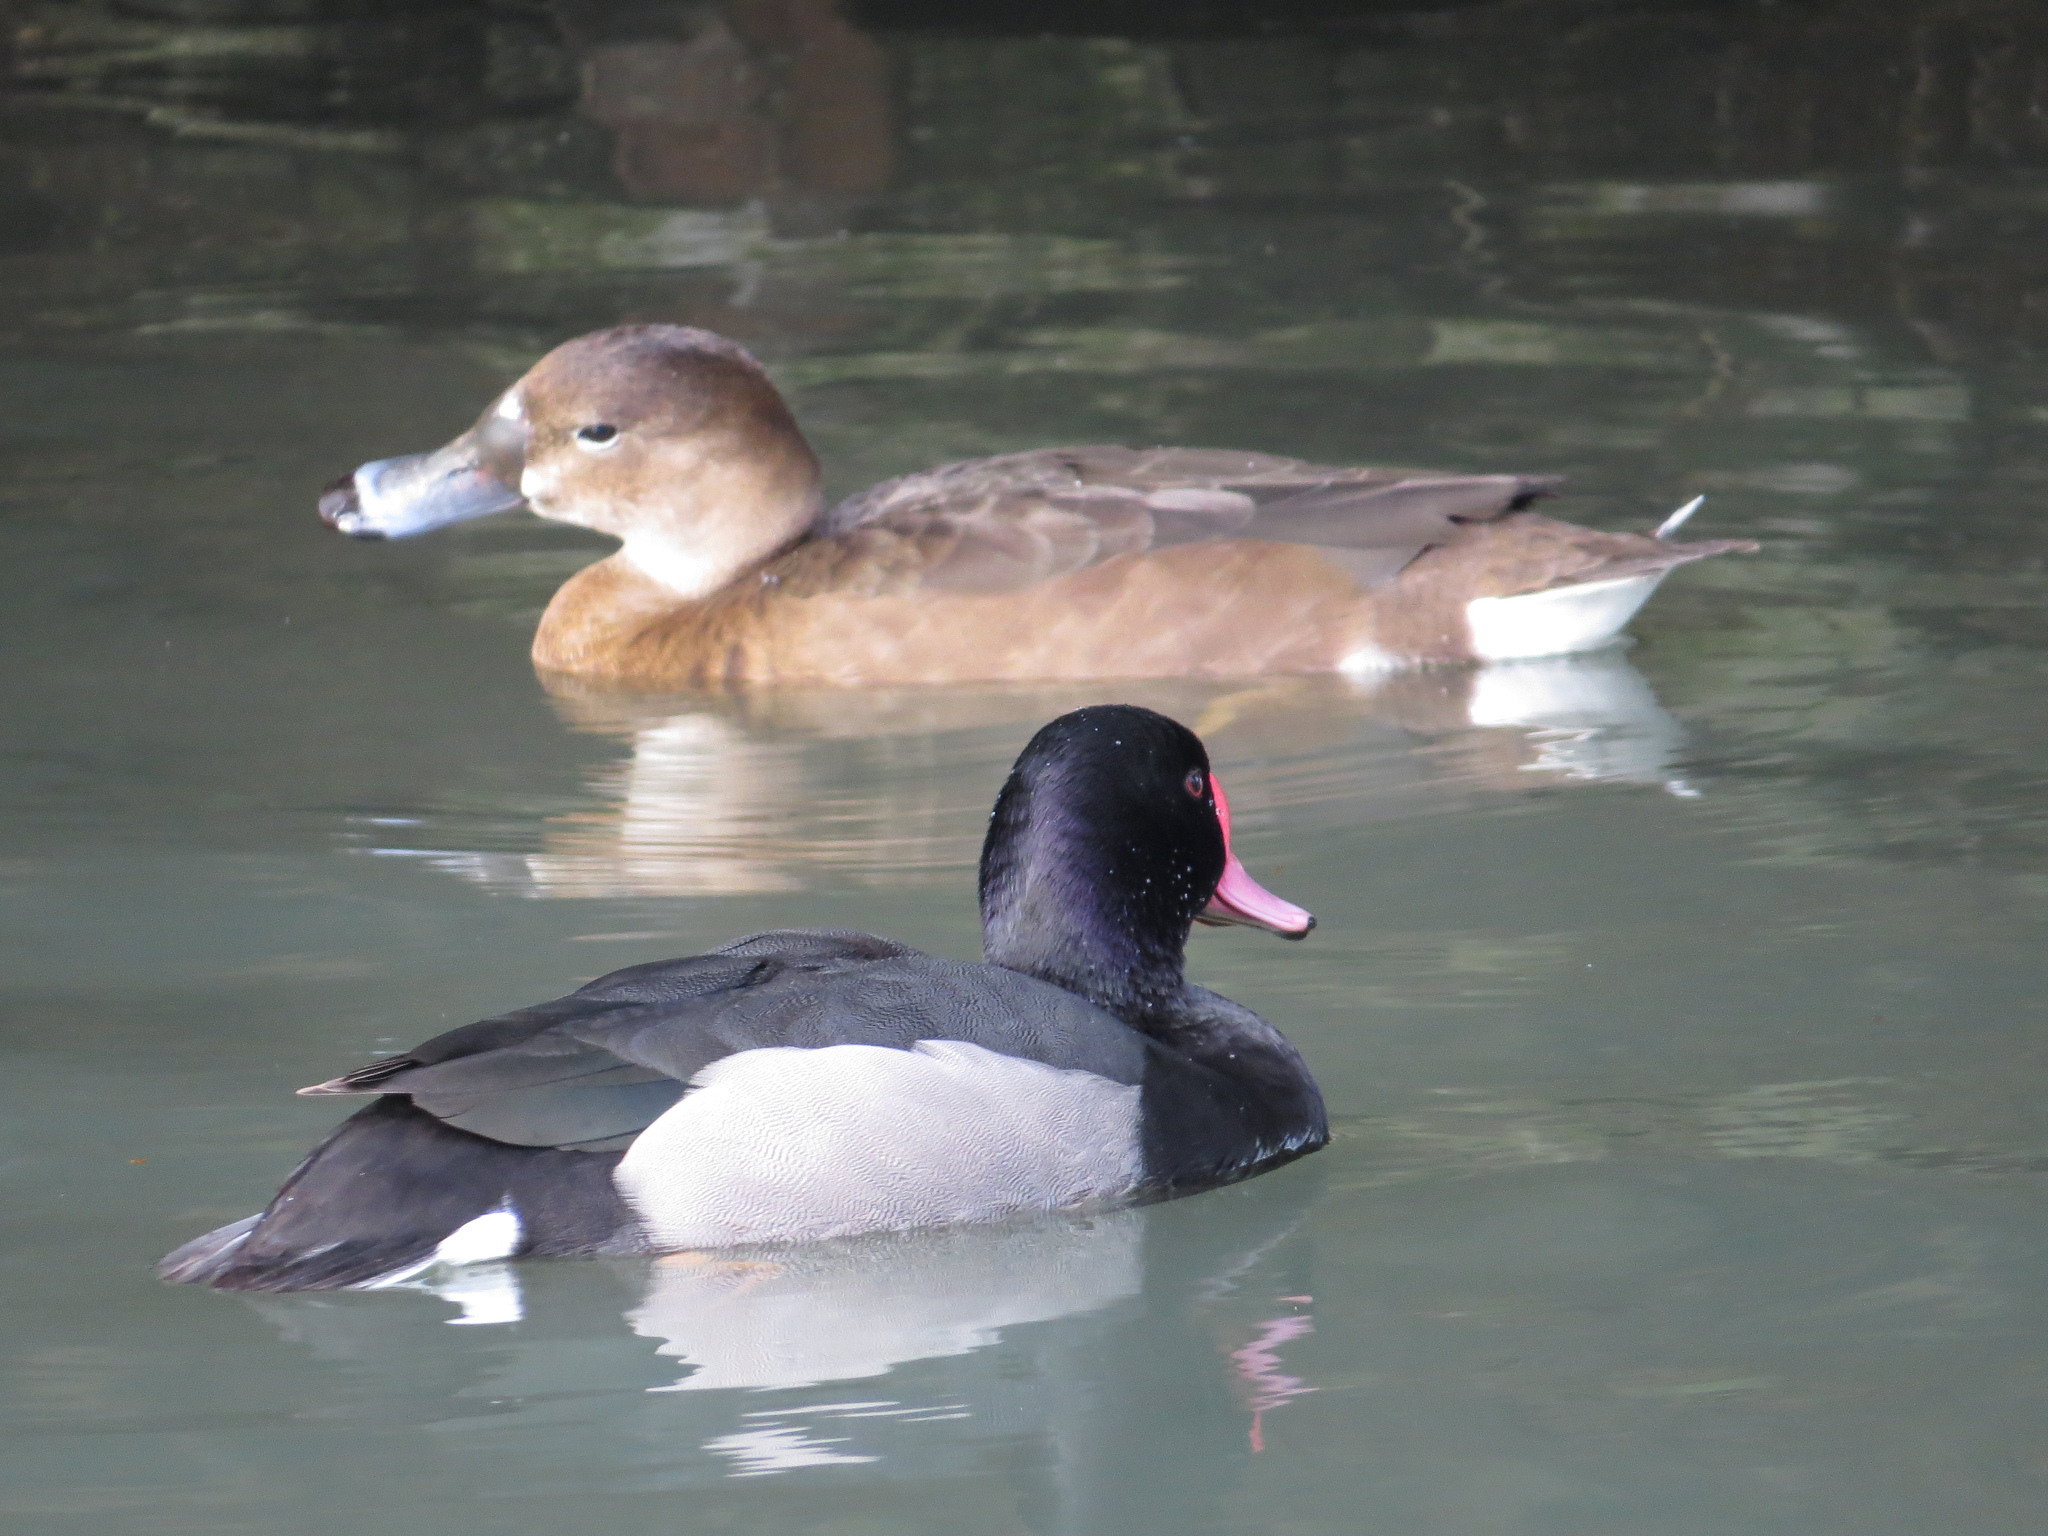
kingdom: Animalia
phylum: Chordata
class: Aves
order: Anseriformes
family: Anatidae
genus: Netta
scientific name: Netta peposaca
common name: Rosy-billed pochard
